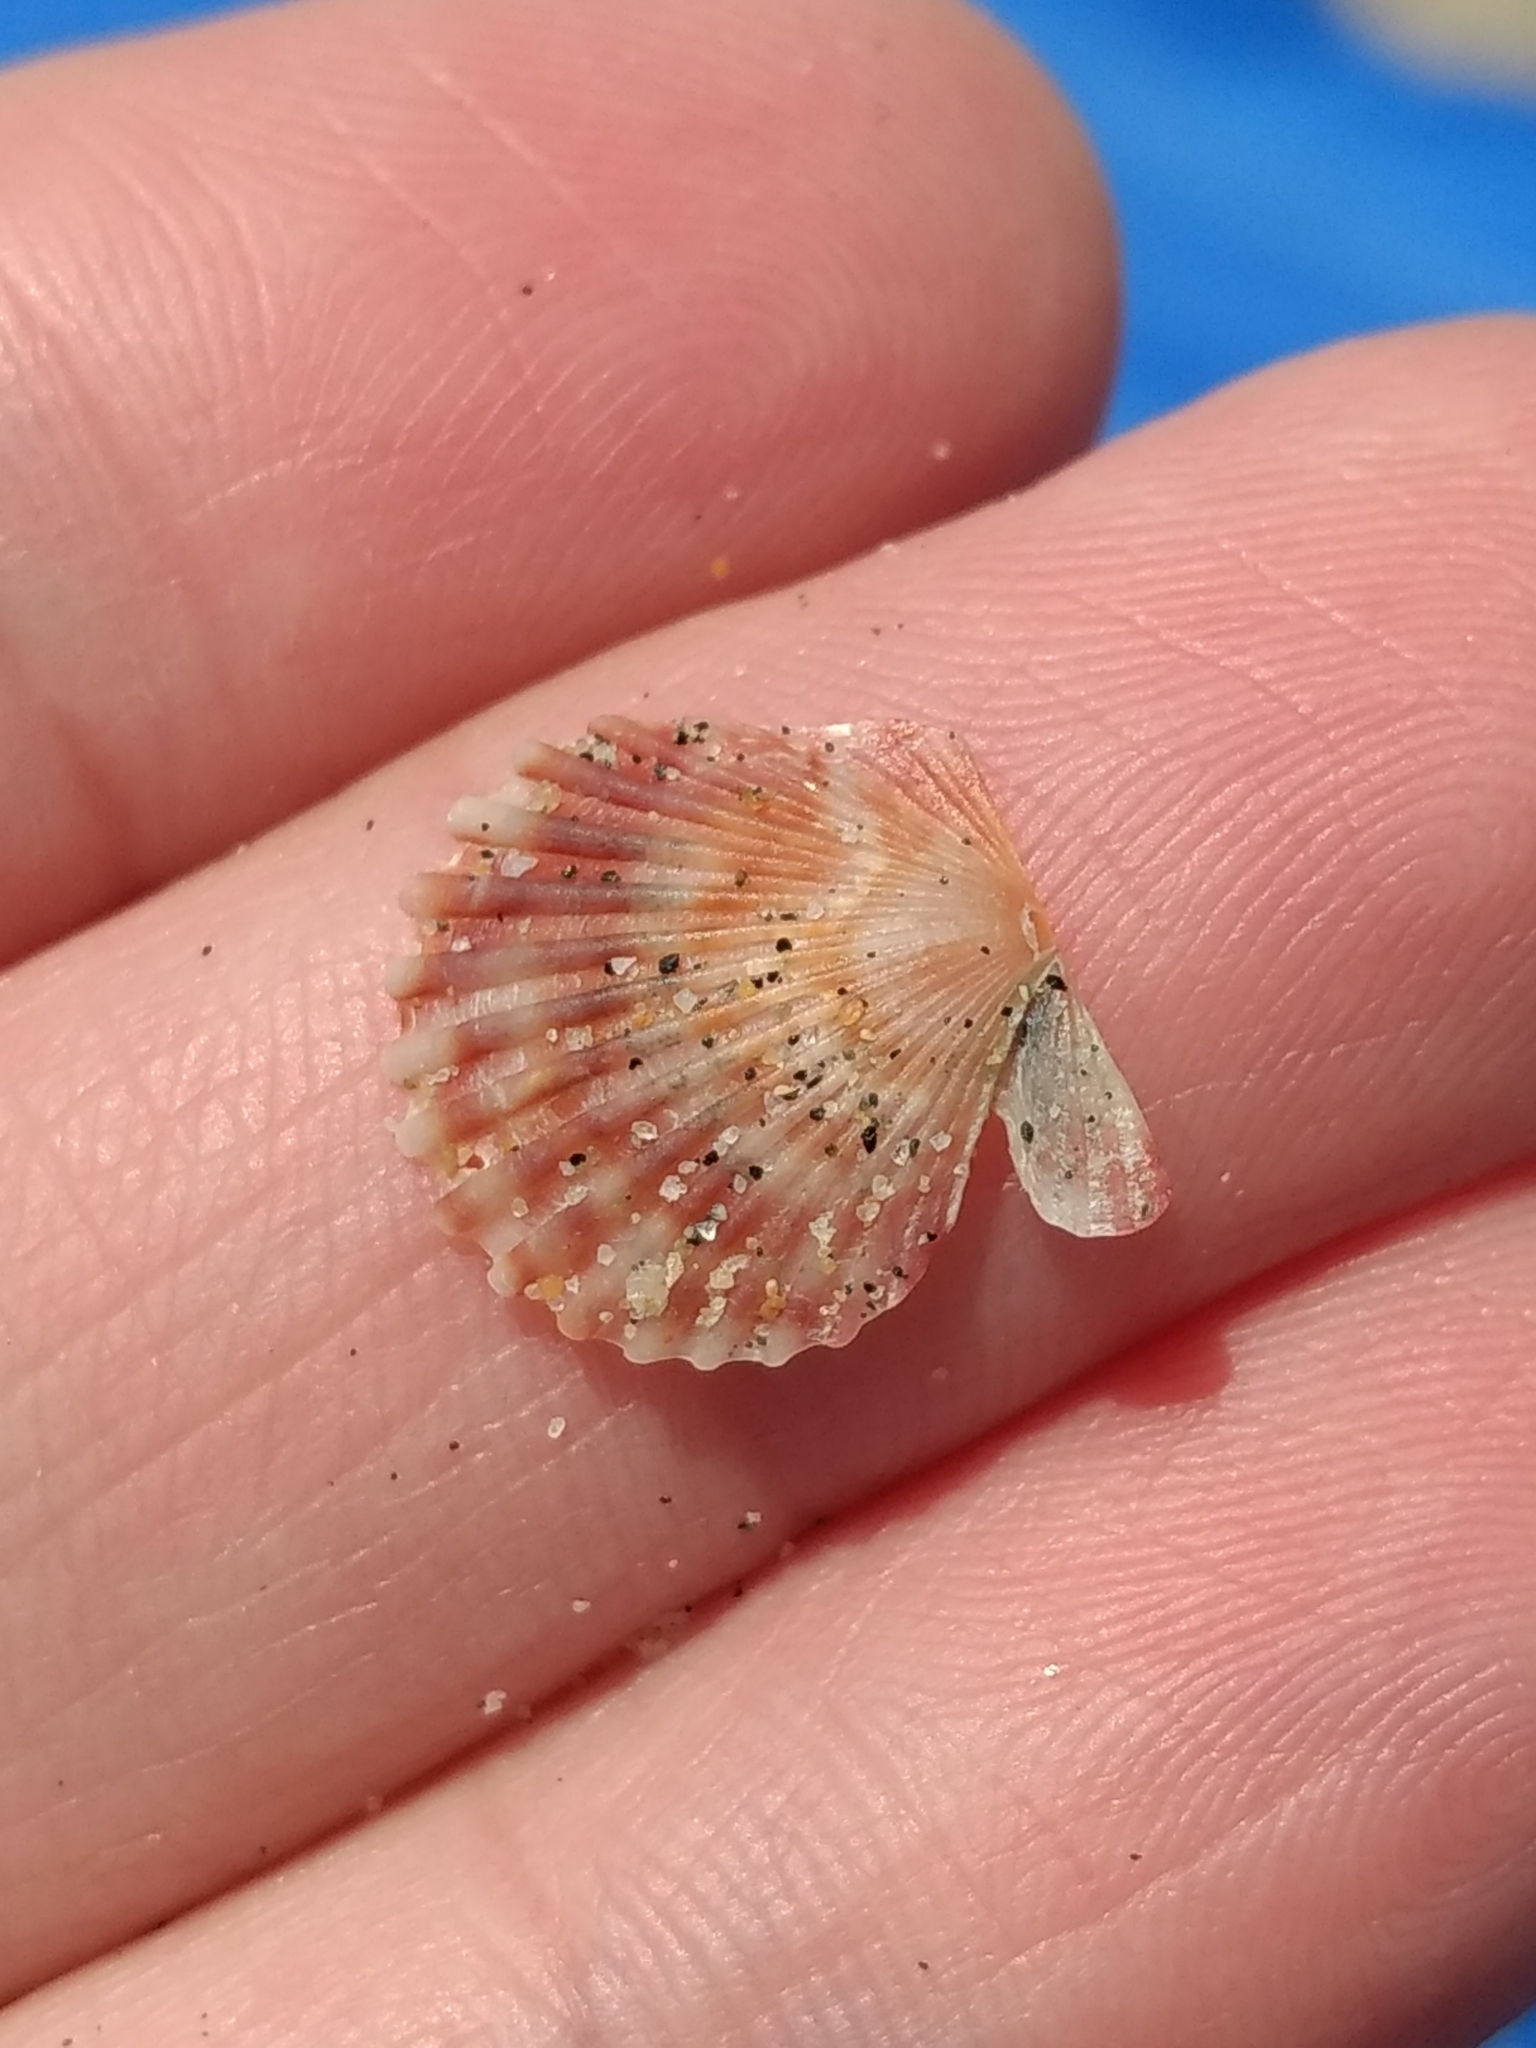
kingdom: Animalia
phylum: Mollusca
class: Bivalvia
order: Pectinida
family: Pectinidae
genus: Leptopecten
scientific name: Leptopecten latiauratus
